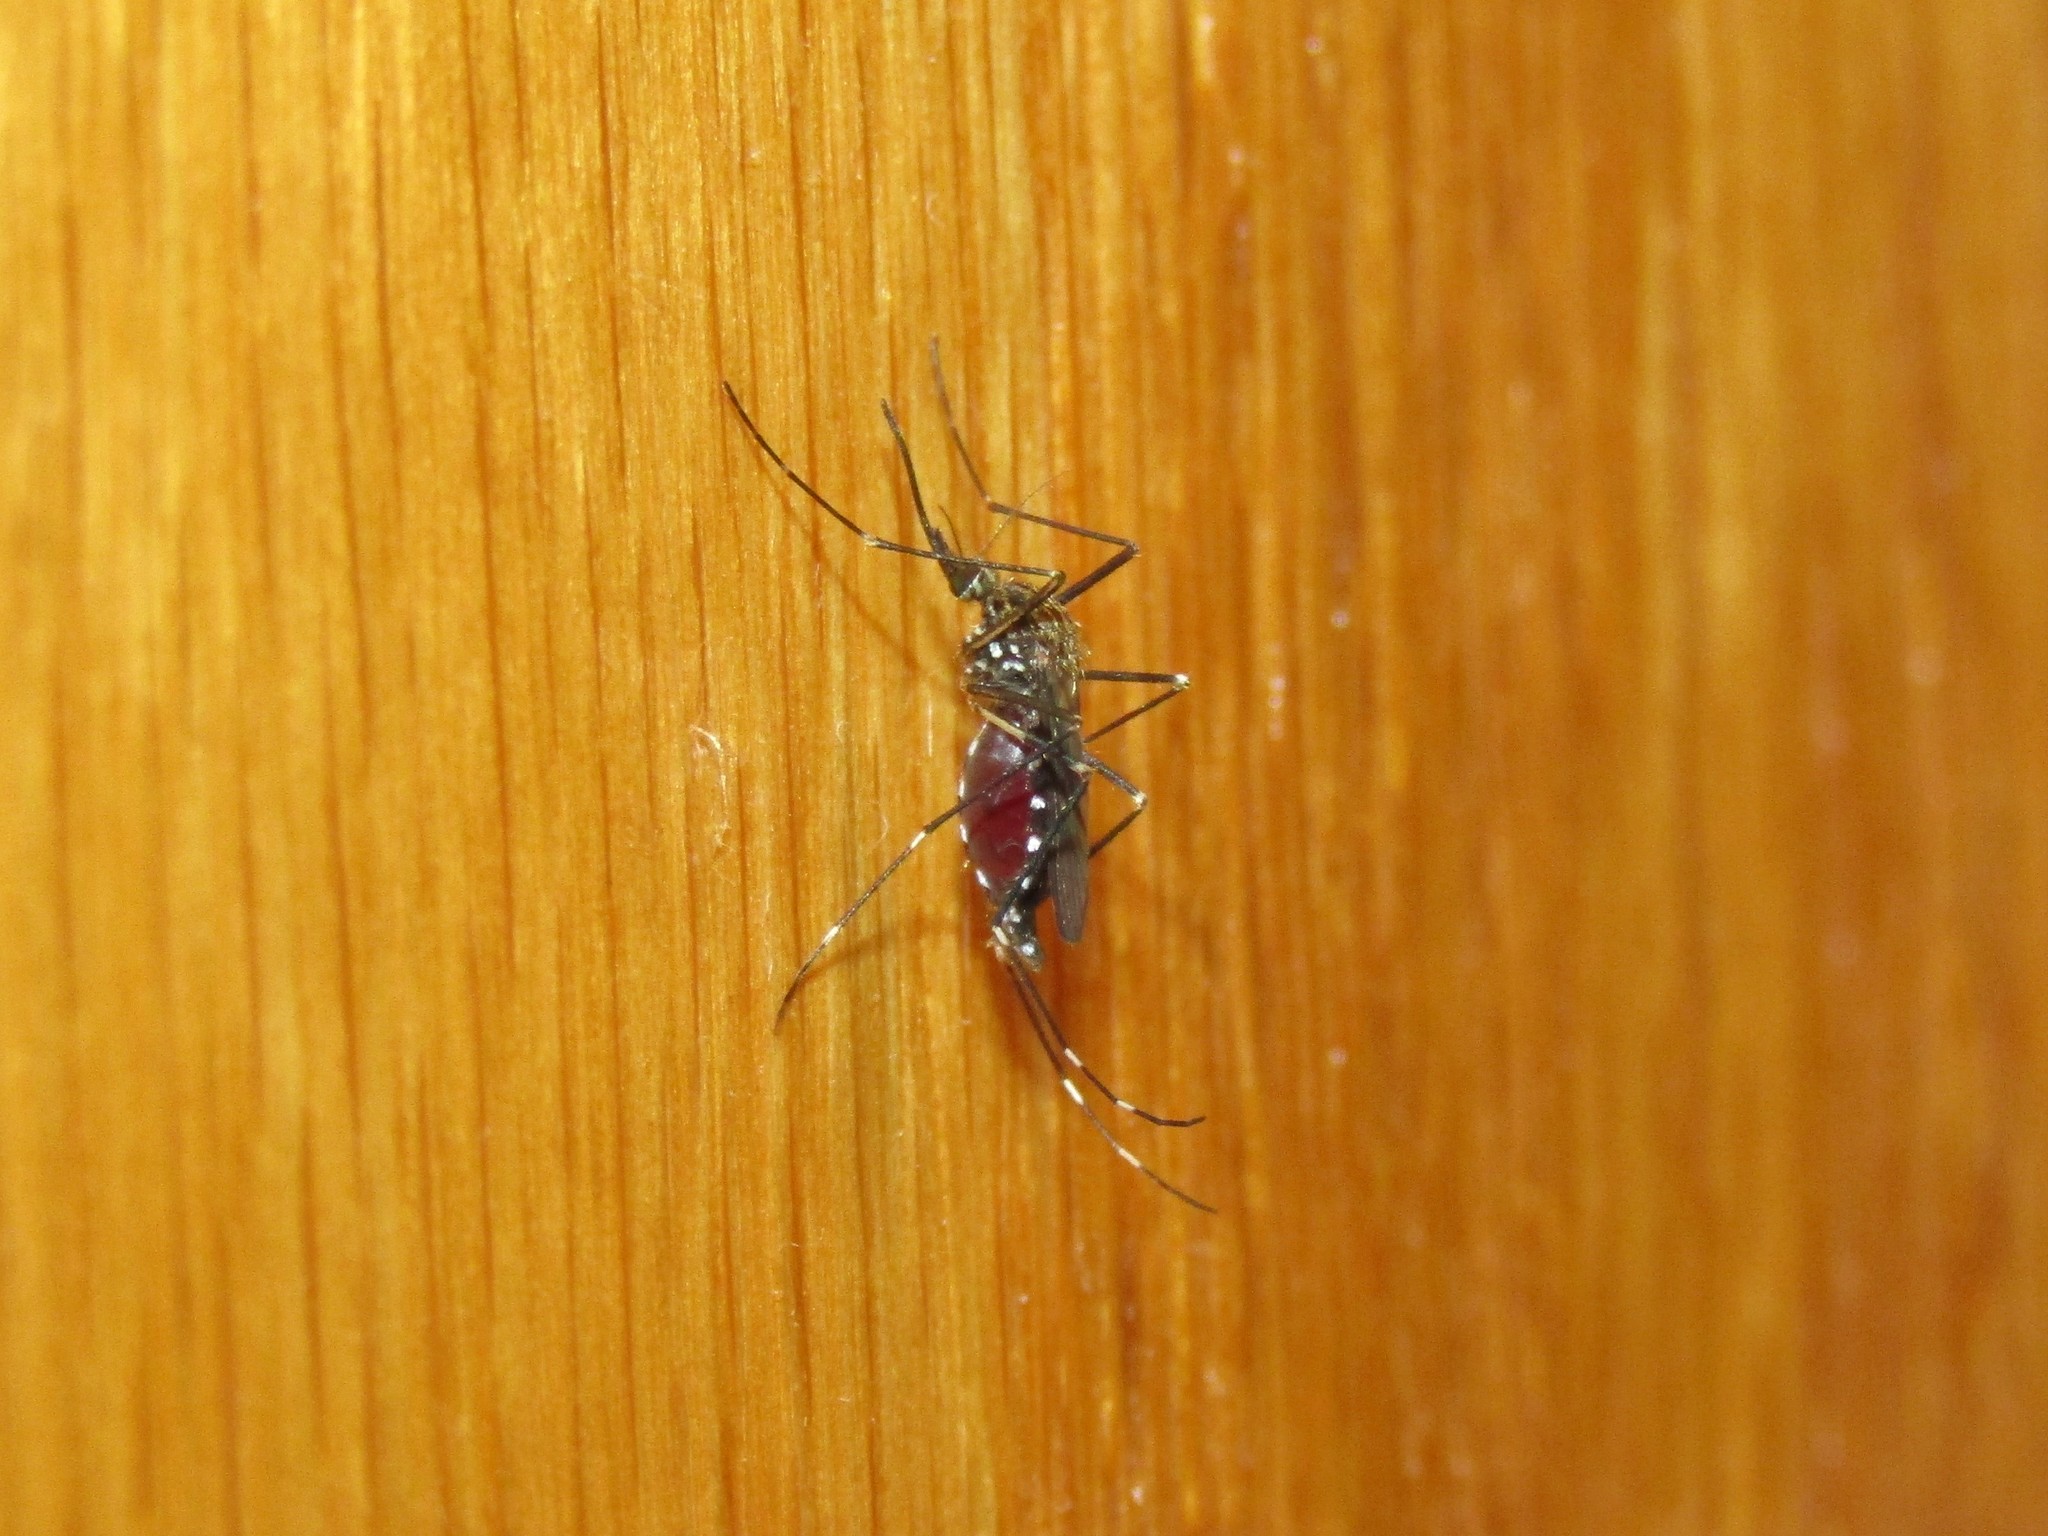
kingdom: Animalia
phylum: Arthropoda
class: Insecta
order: Diptera
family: Culicidae
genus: Aedes
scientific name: Aedes japonicus
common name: Asian bush mosquito
